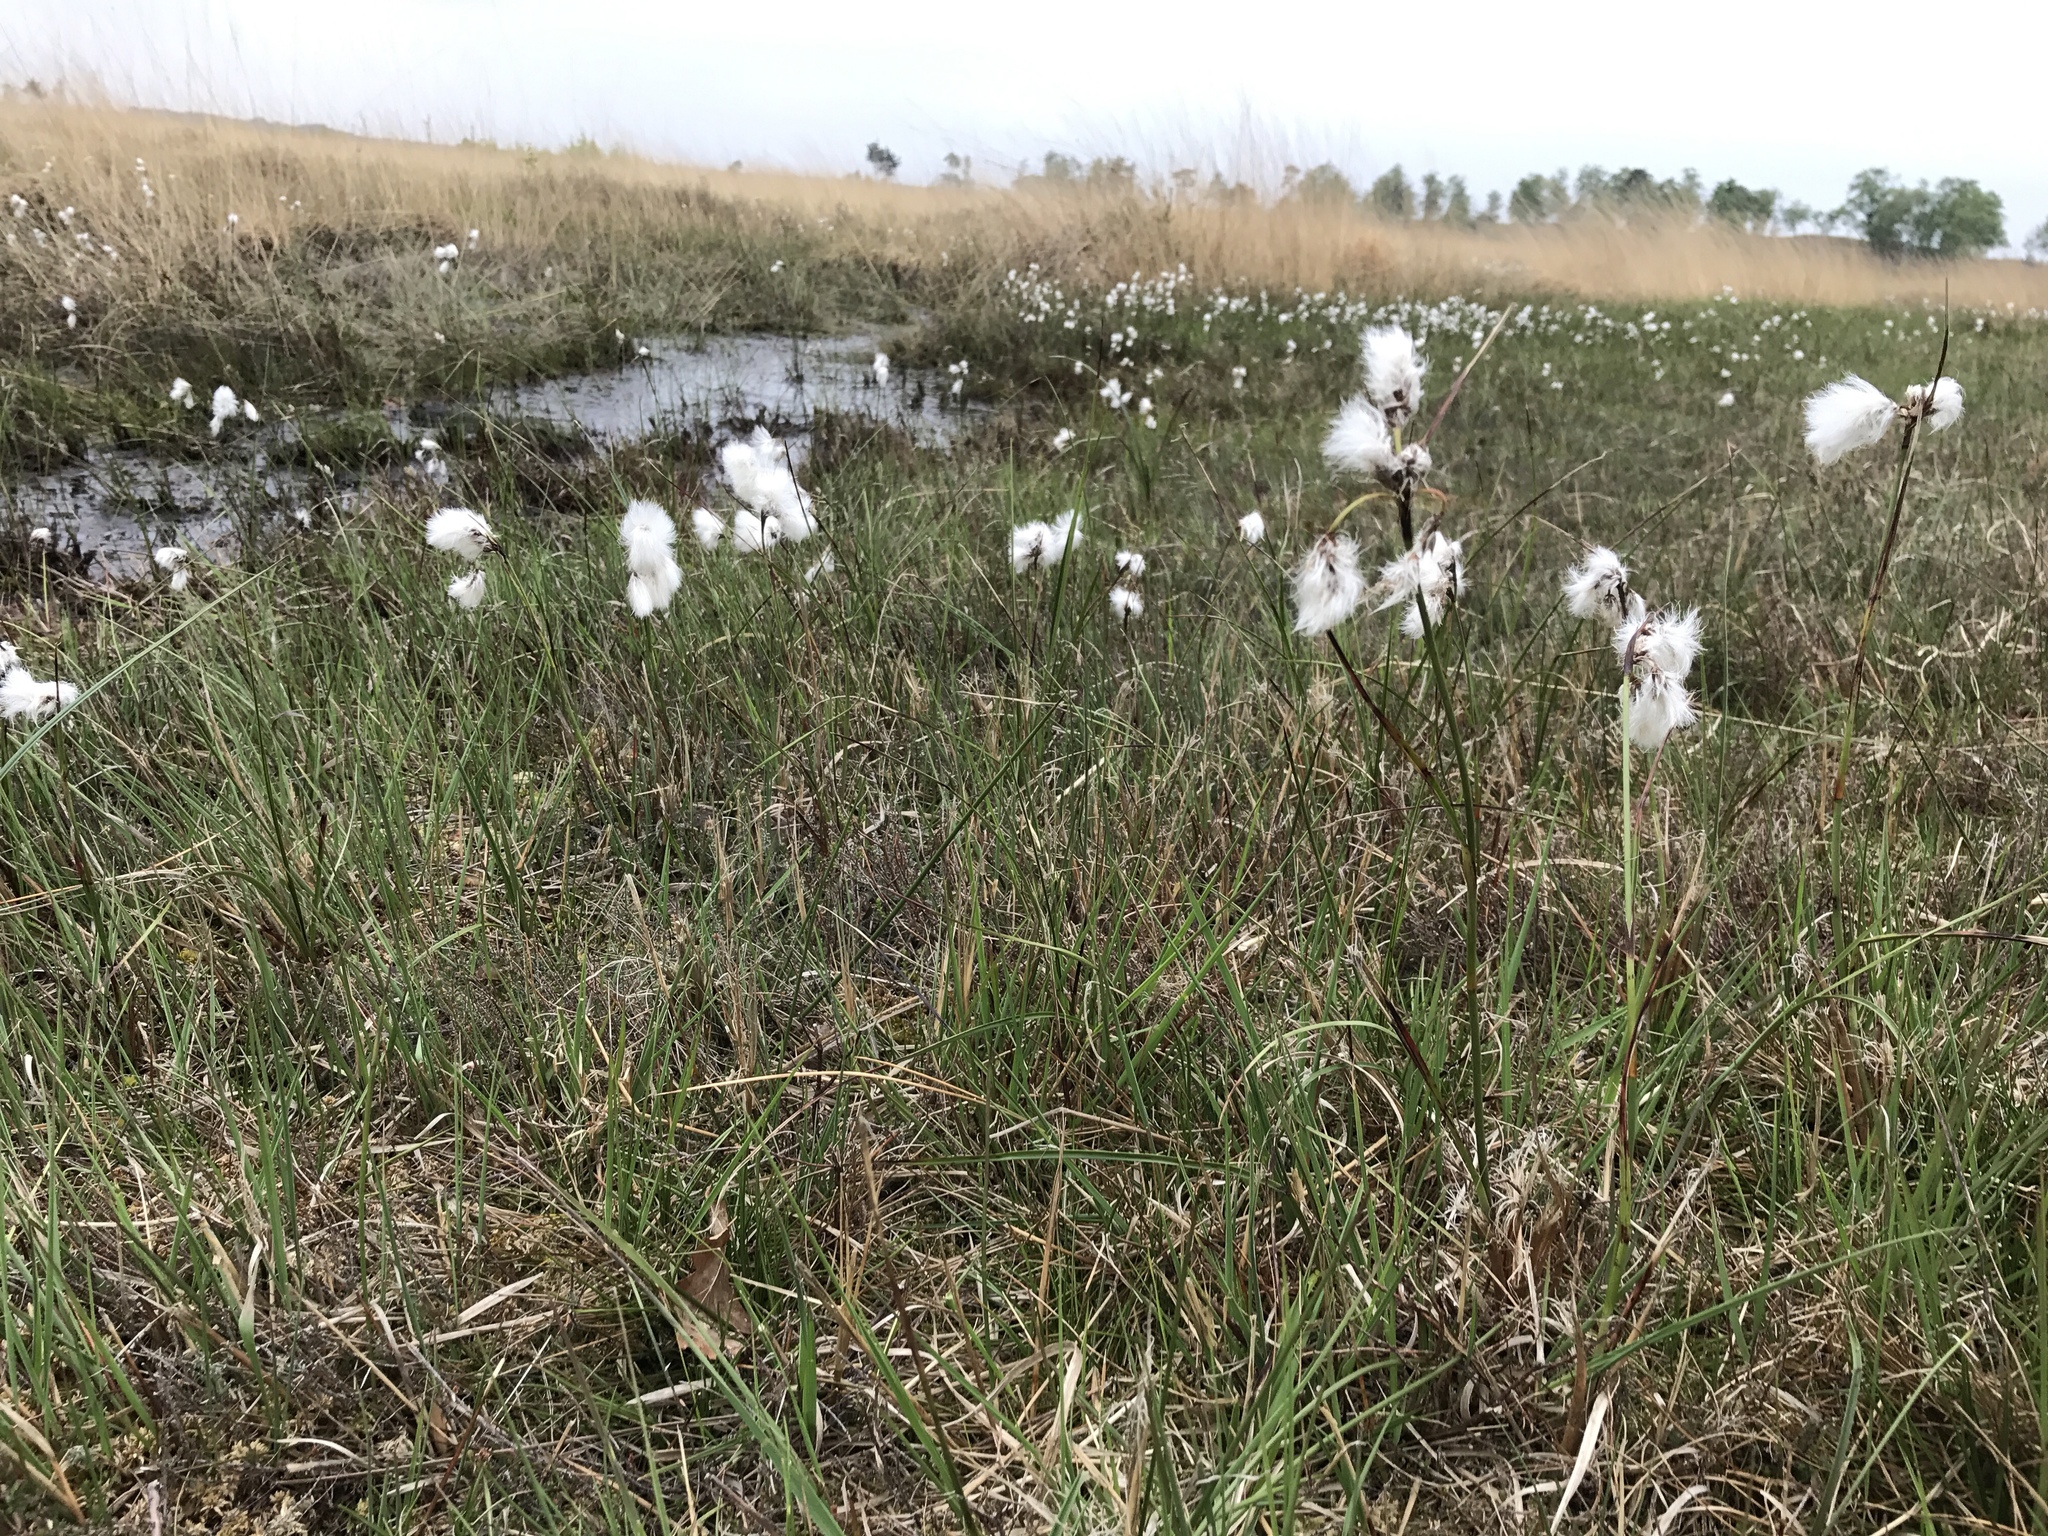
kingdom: Plantae
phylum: Tracheophyta
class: Liliopsida
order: Poales
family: Cyperaceae
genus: Eriophorum
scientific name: Eriophorum angustifolium
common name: Common cottongrass
